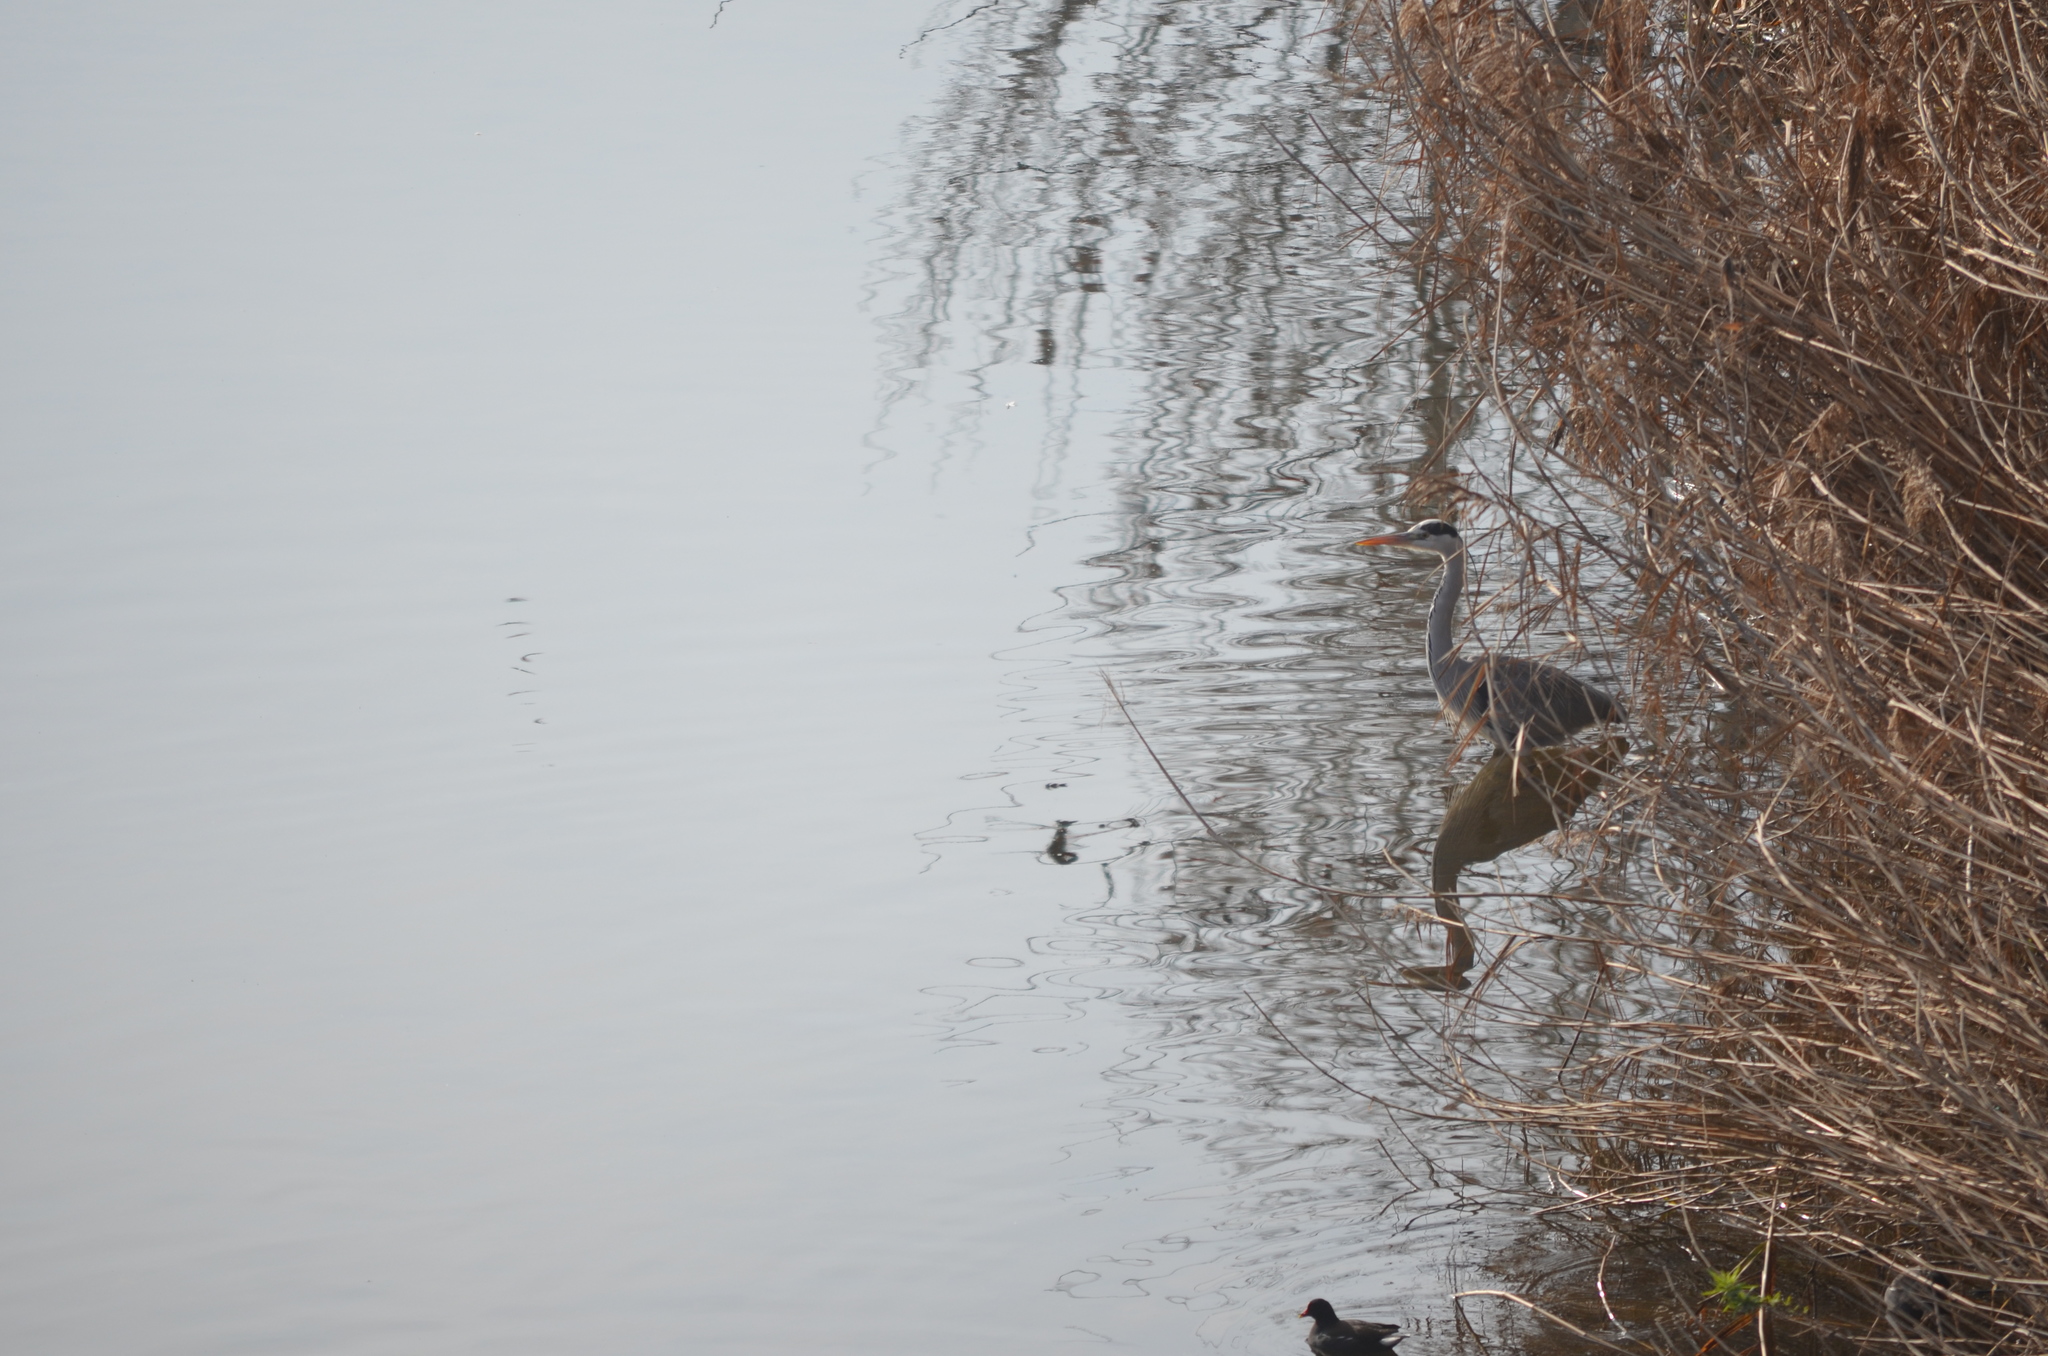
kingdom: Animalia
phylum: Chordata
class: Aves
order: Pelecaniformes
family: Ardeidae
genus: Ardea
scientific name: Ardea cinerea
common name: Grey heron
